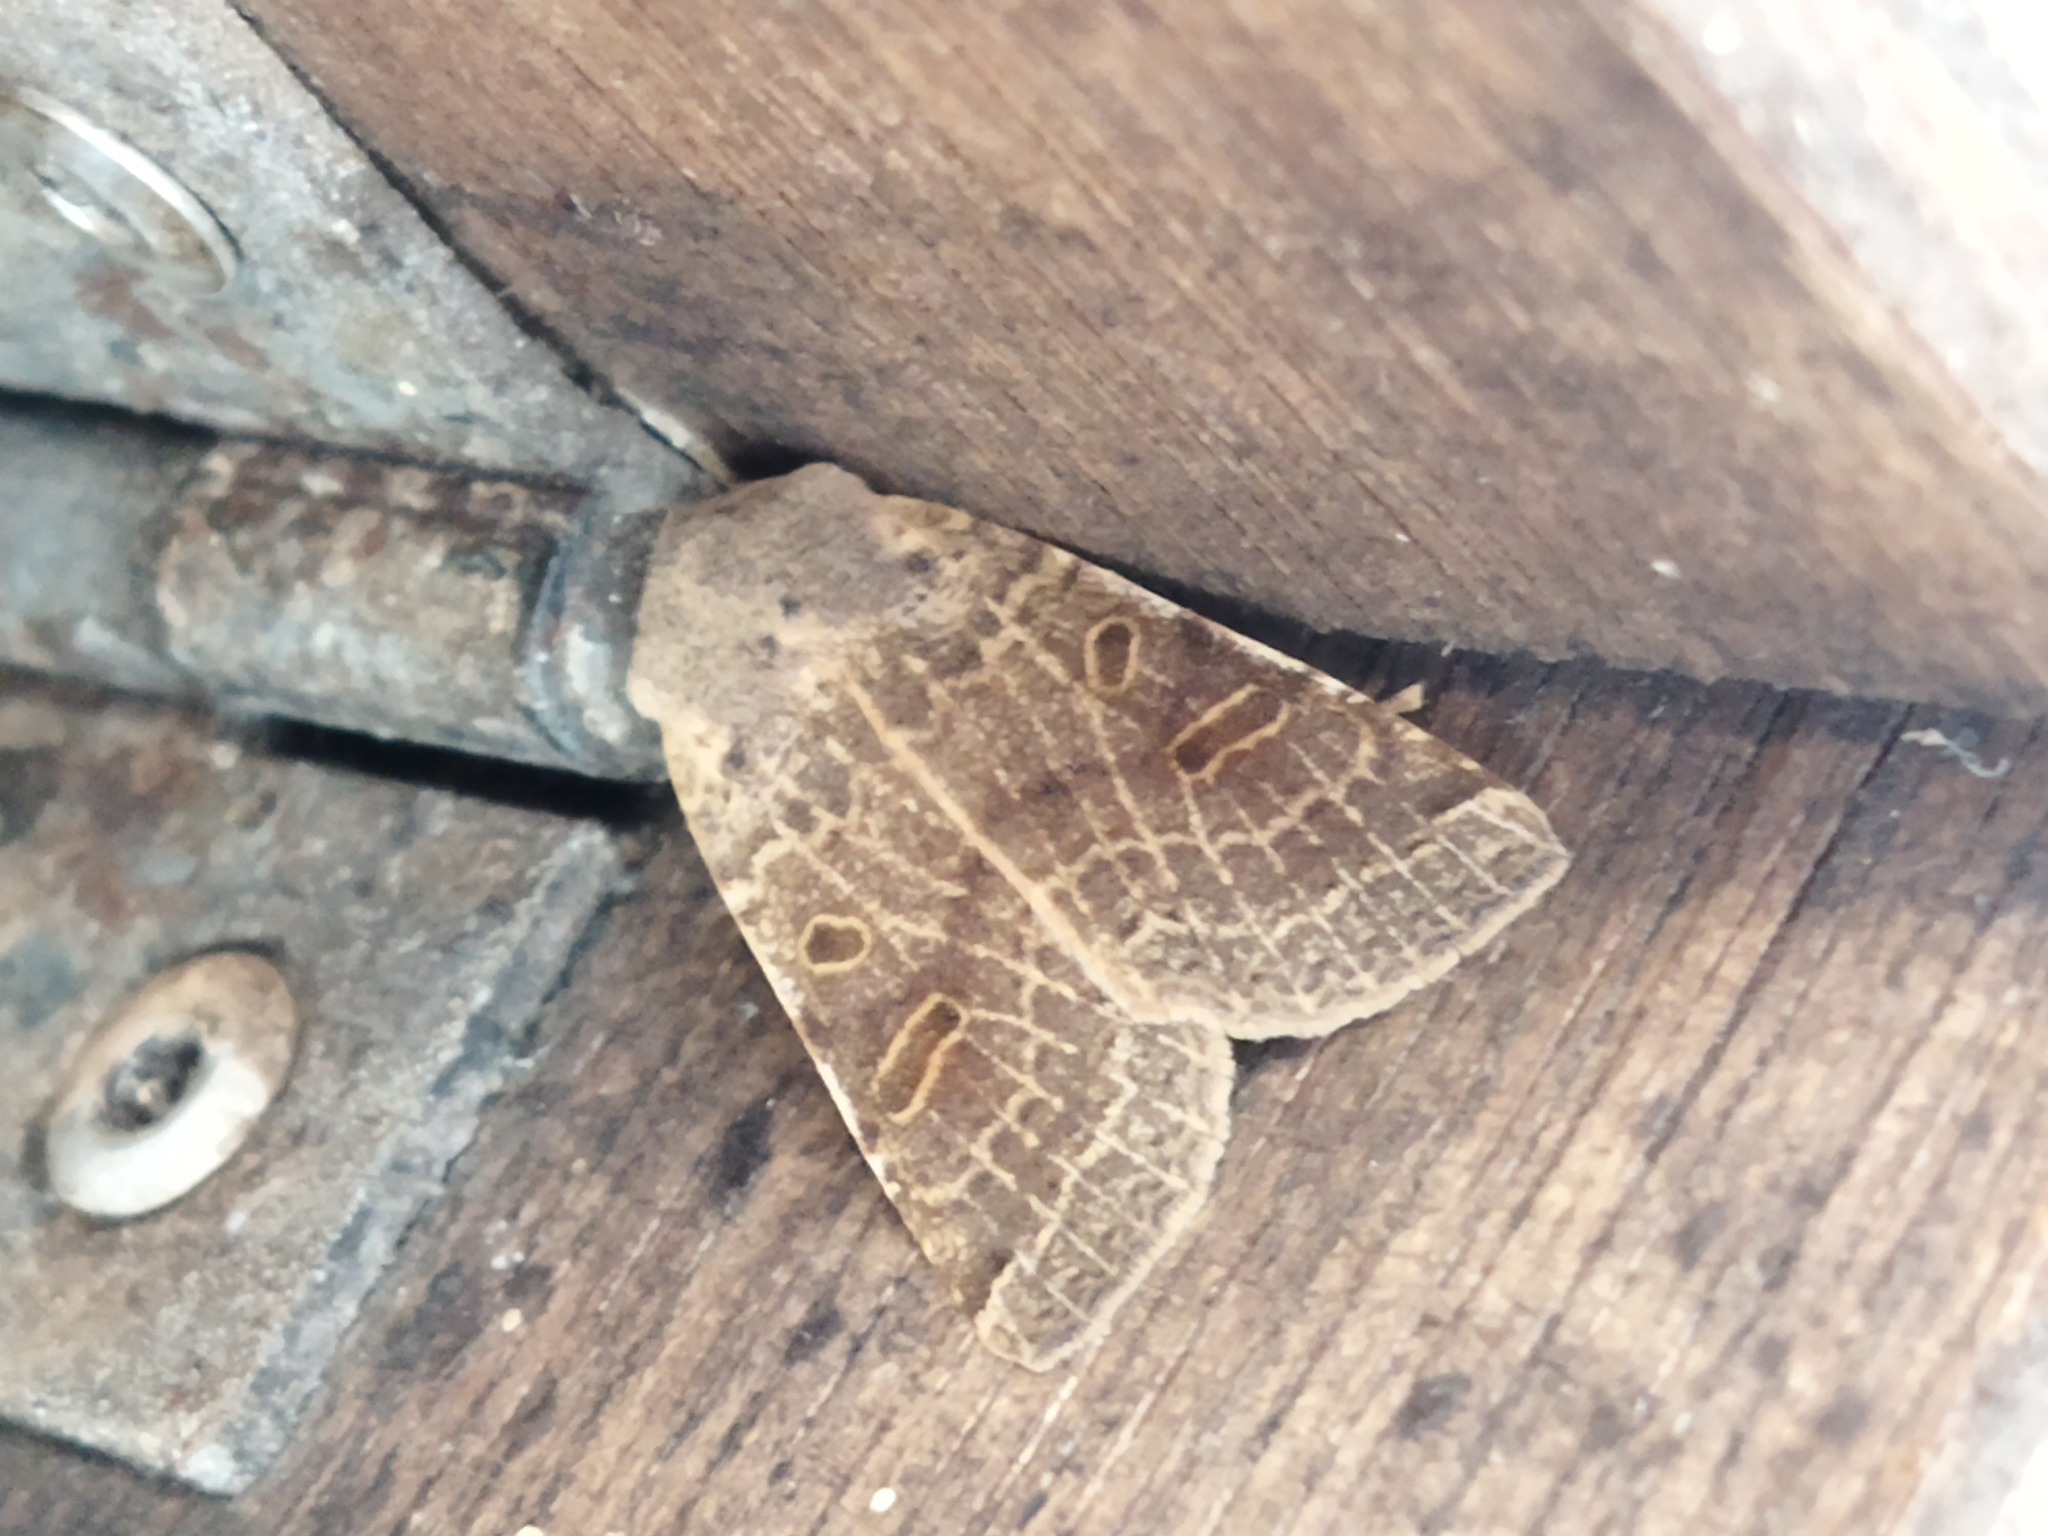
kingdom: Animalia
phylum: Arthropoda
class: Insecta
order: Lepidoptera
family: Noctuidae
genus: Agrochola
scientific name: Agrochola lychnidis
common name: Beaded chestnut
